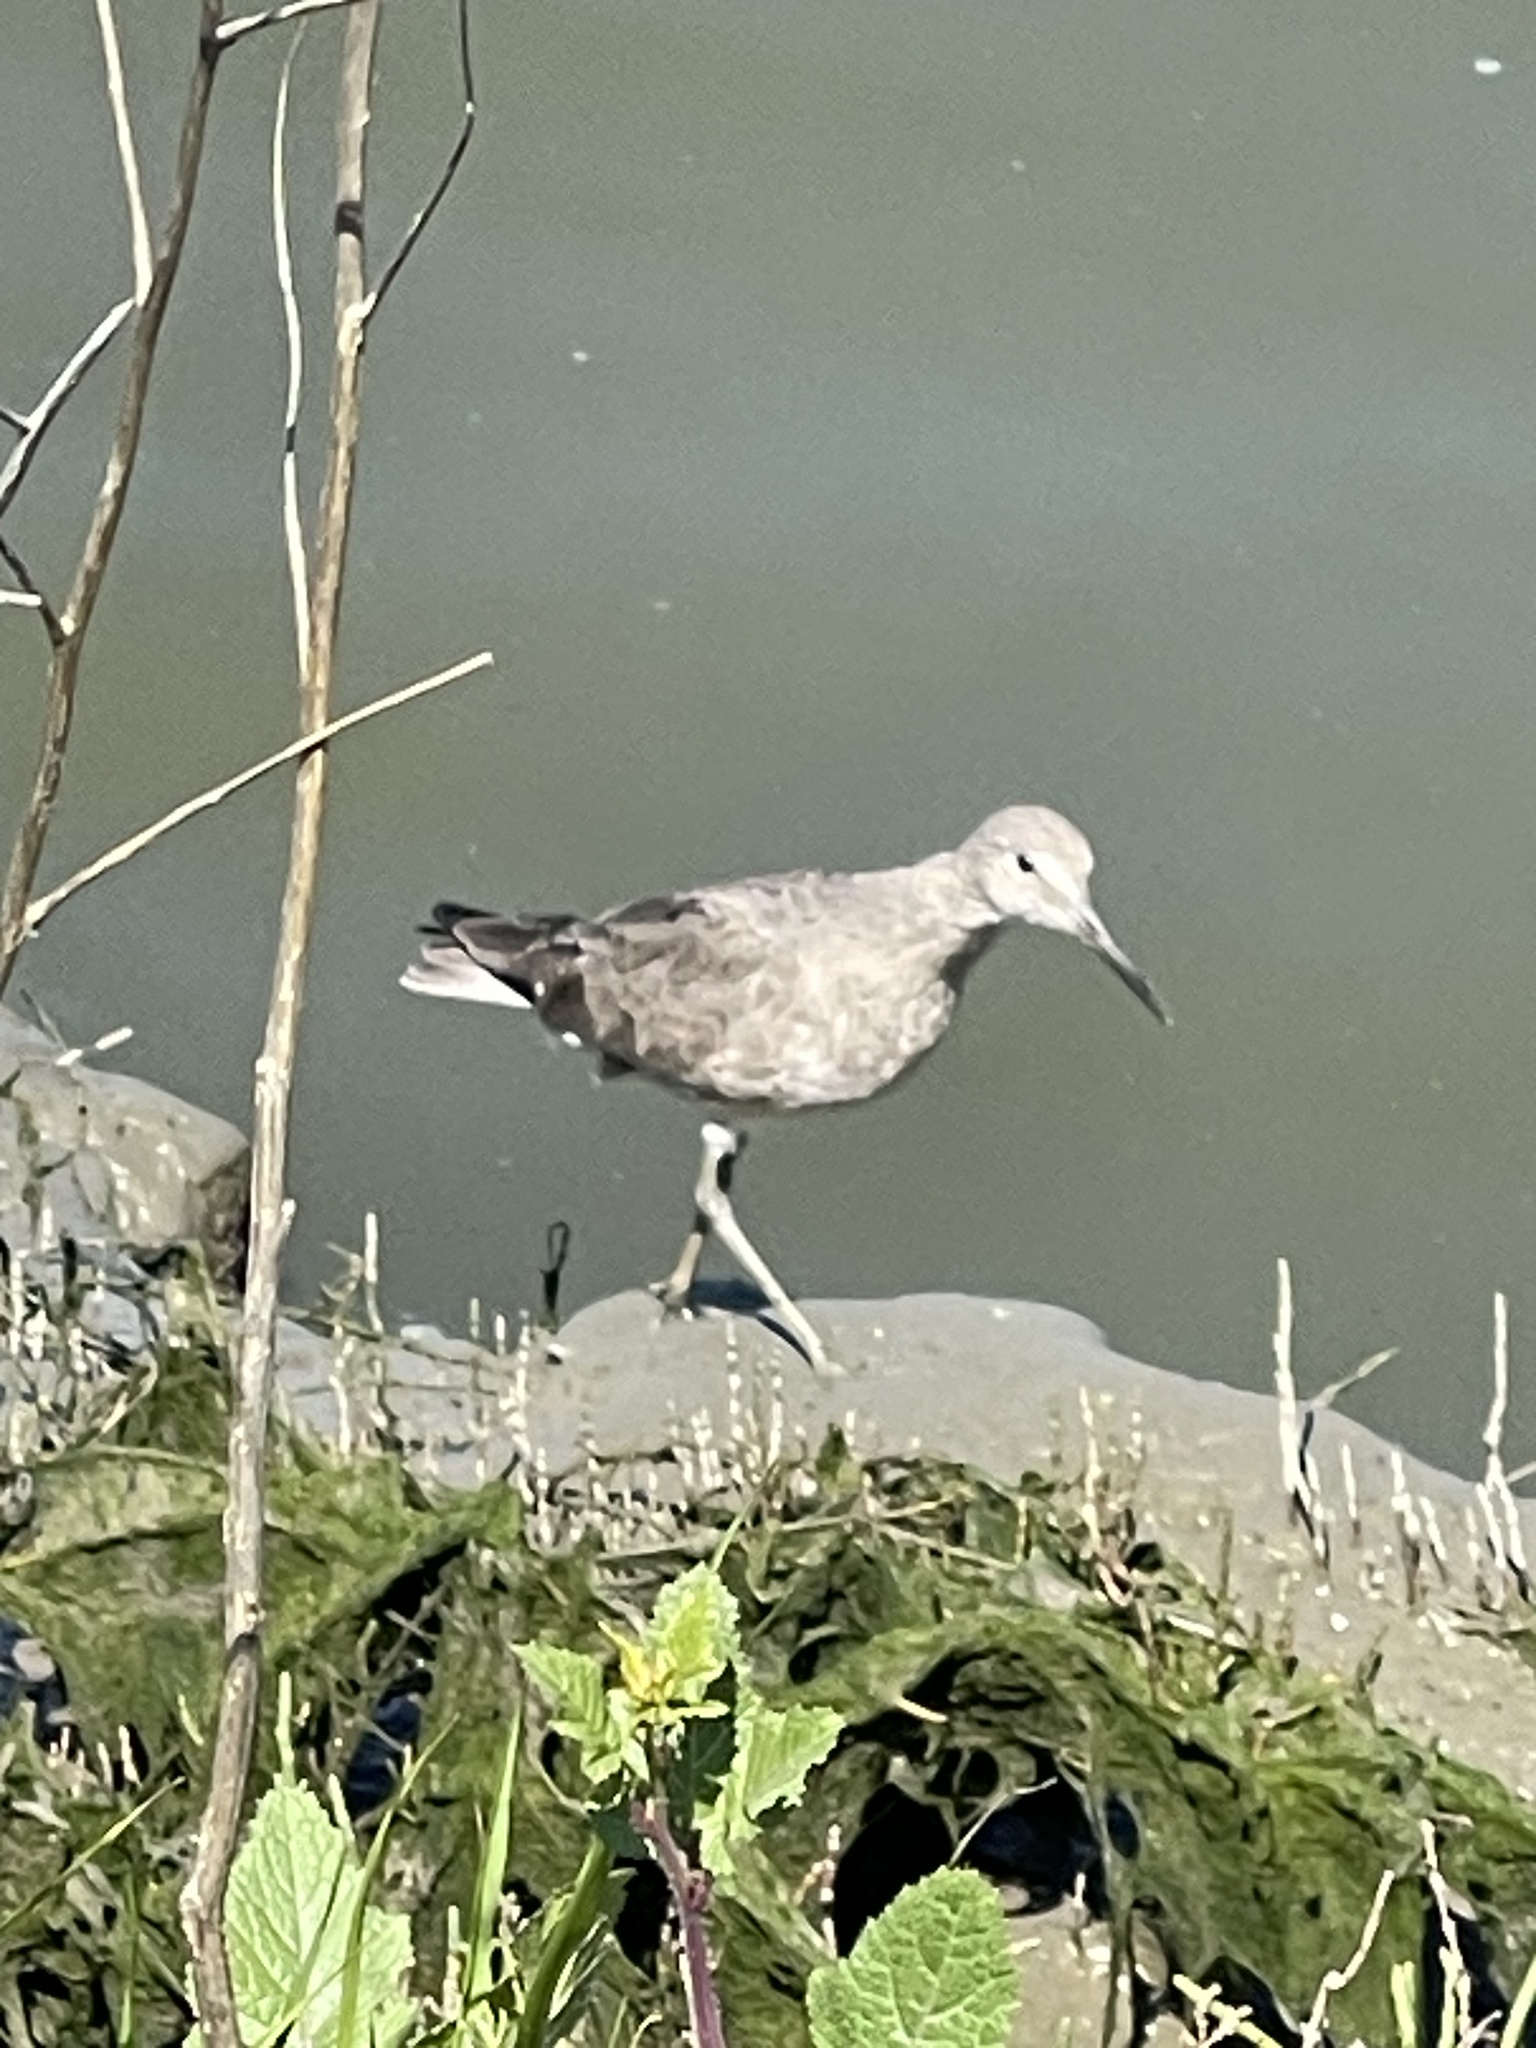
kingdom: Animalia
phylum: Chordata
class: Aves
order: Charadriiformes
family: Scolopacidae
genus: Tringa
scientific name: Tringa semipalmata
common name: Willet
